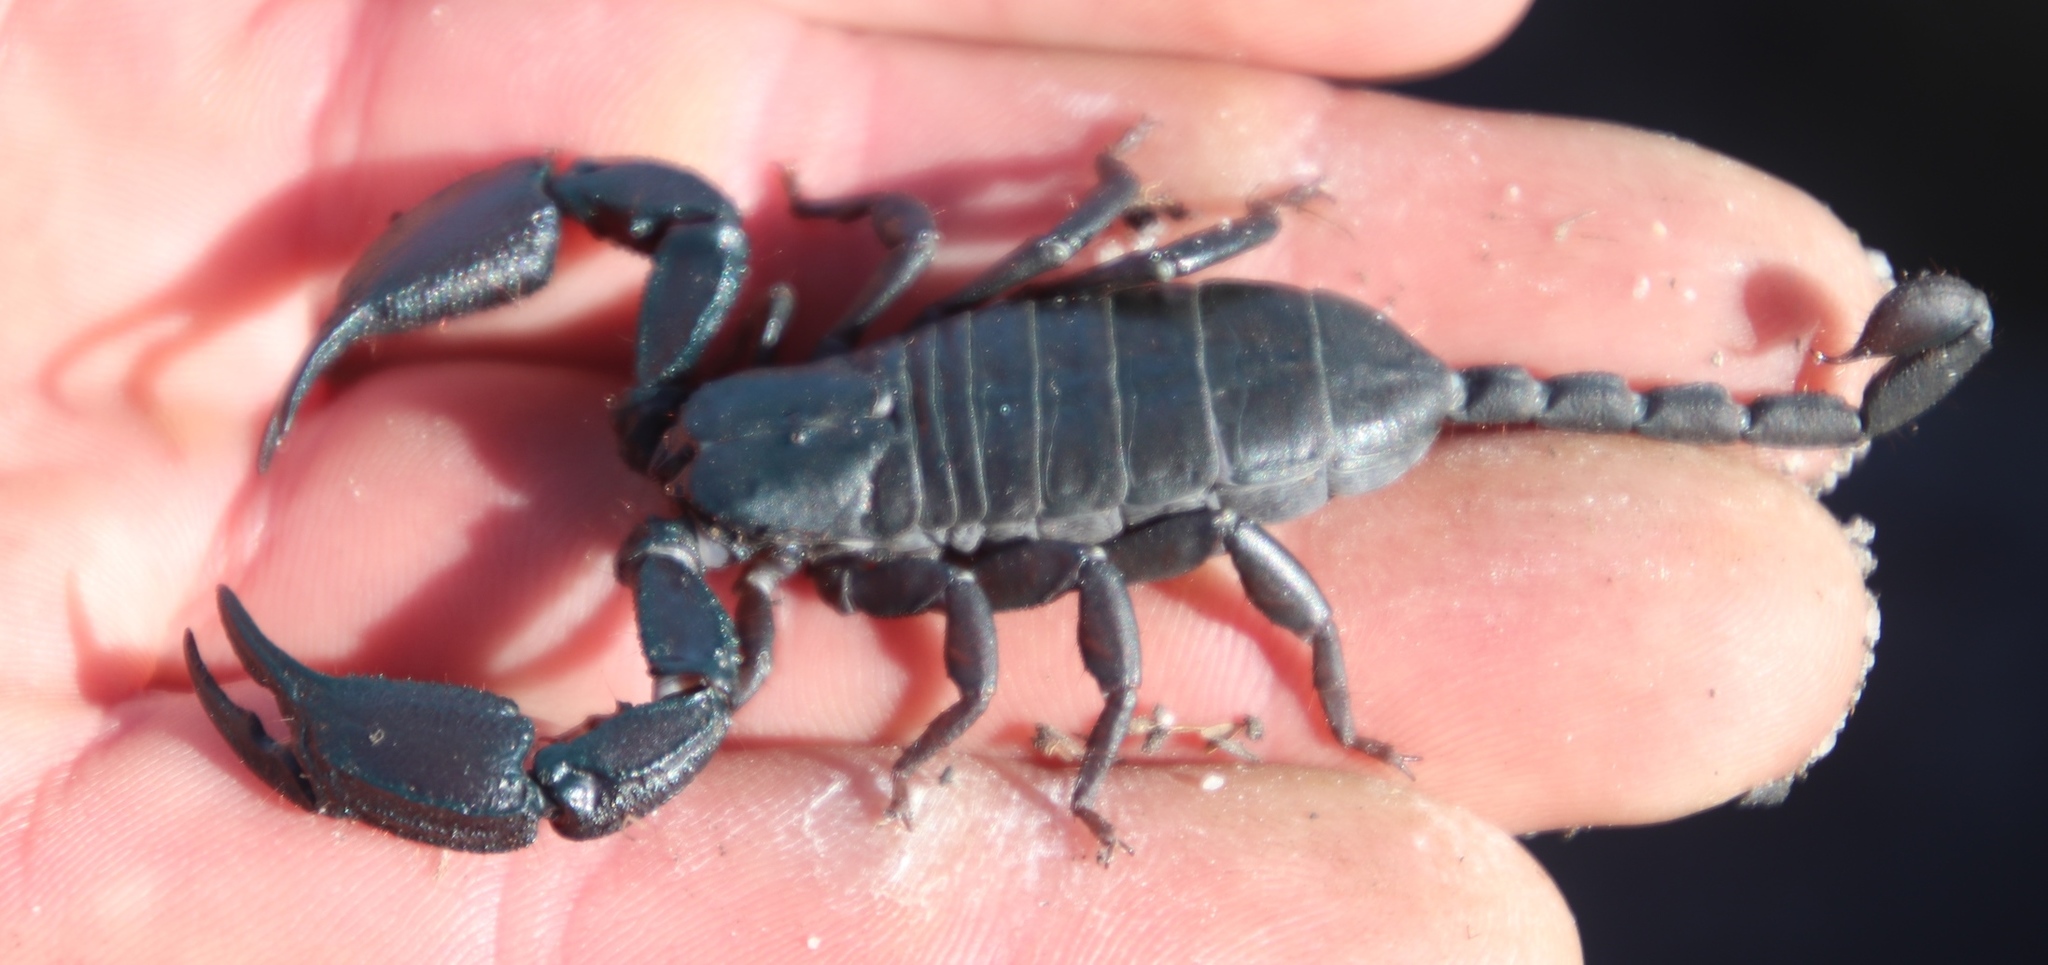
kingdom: Animalia
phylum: Arthropoda
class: Arachnida
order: Scorpiones
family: Hormuridae
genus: Opisthacanthus
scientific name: Opisthacanthus capensis
